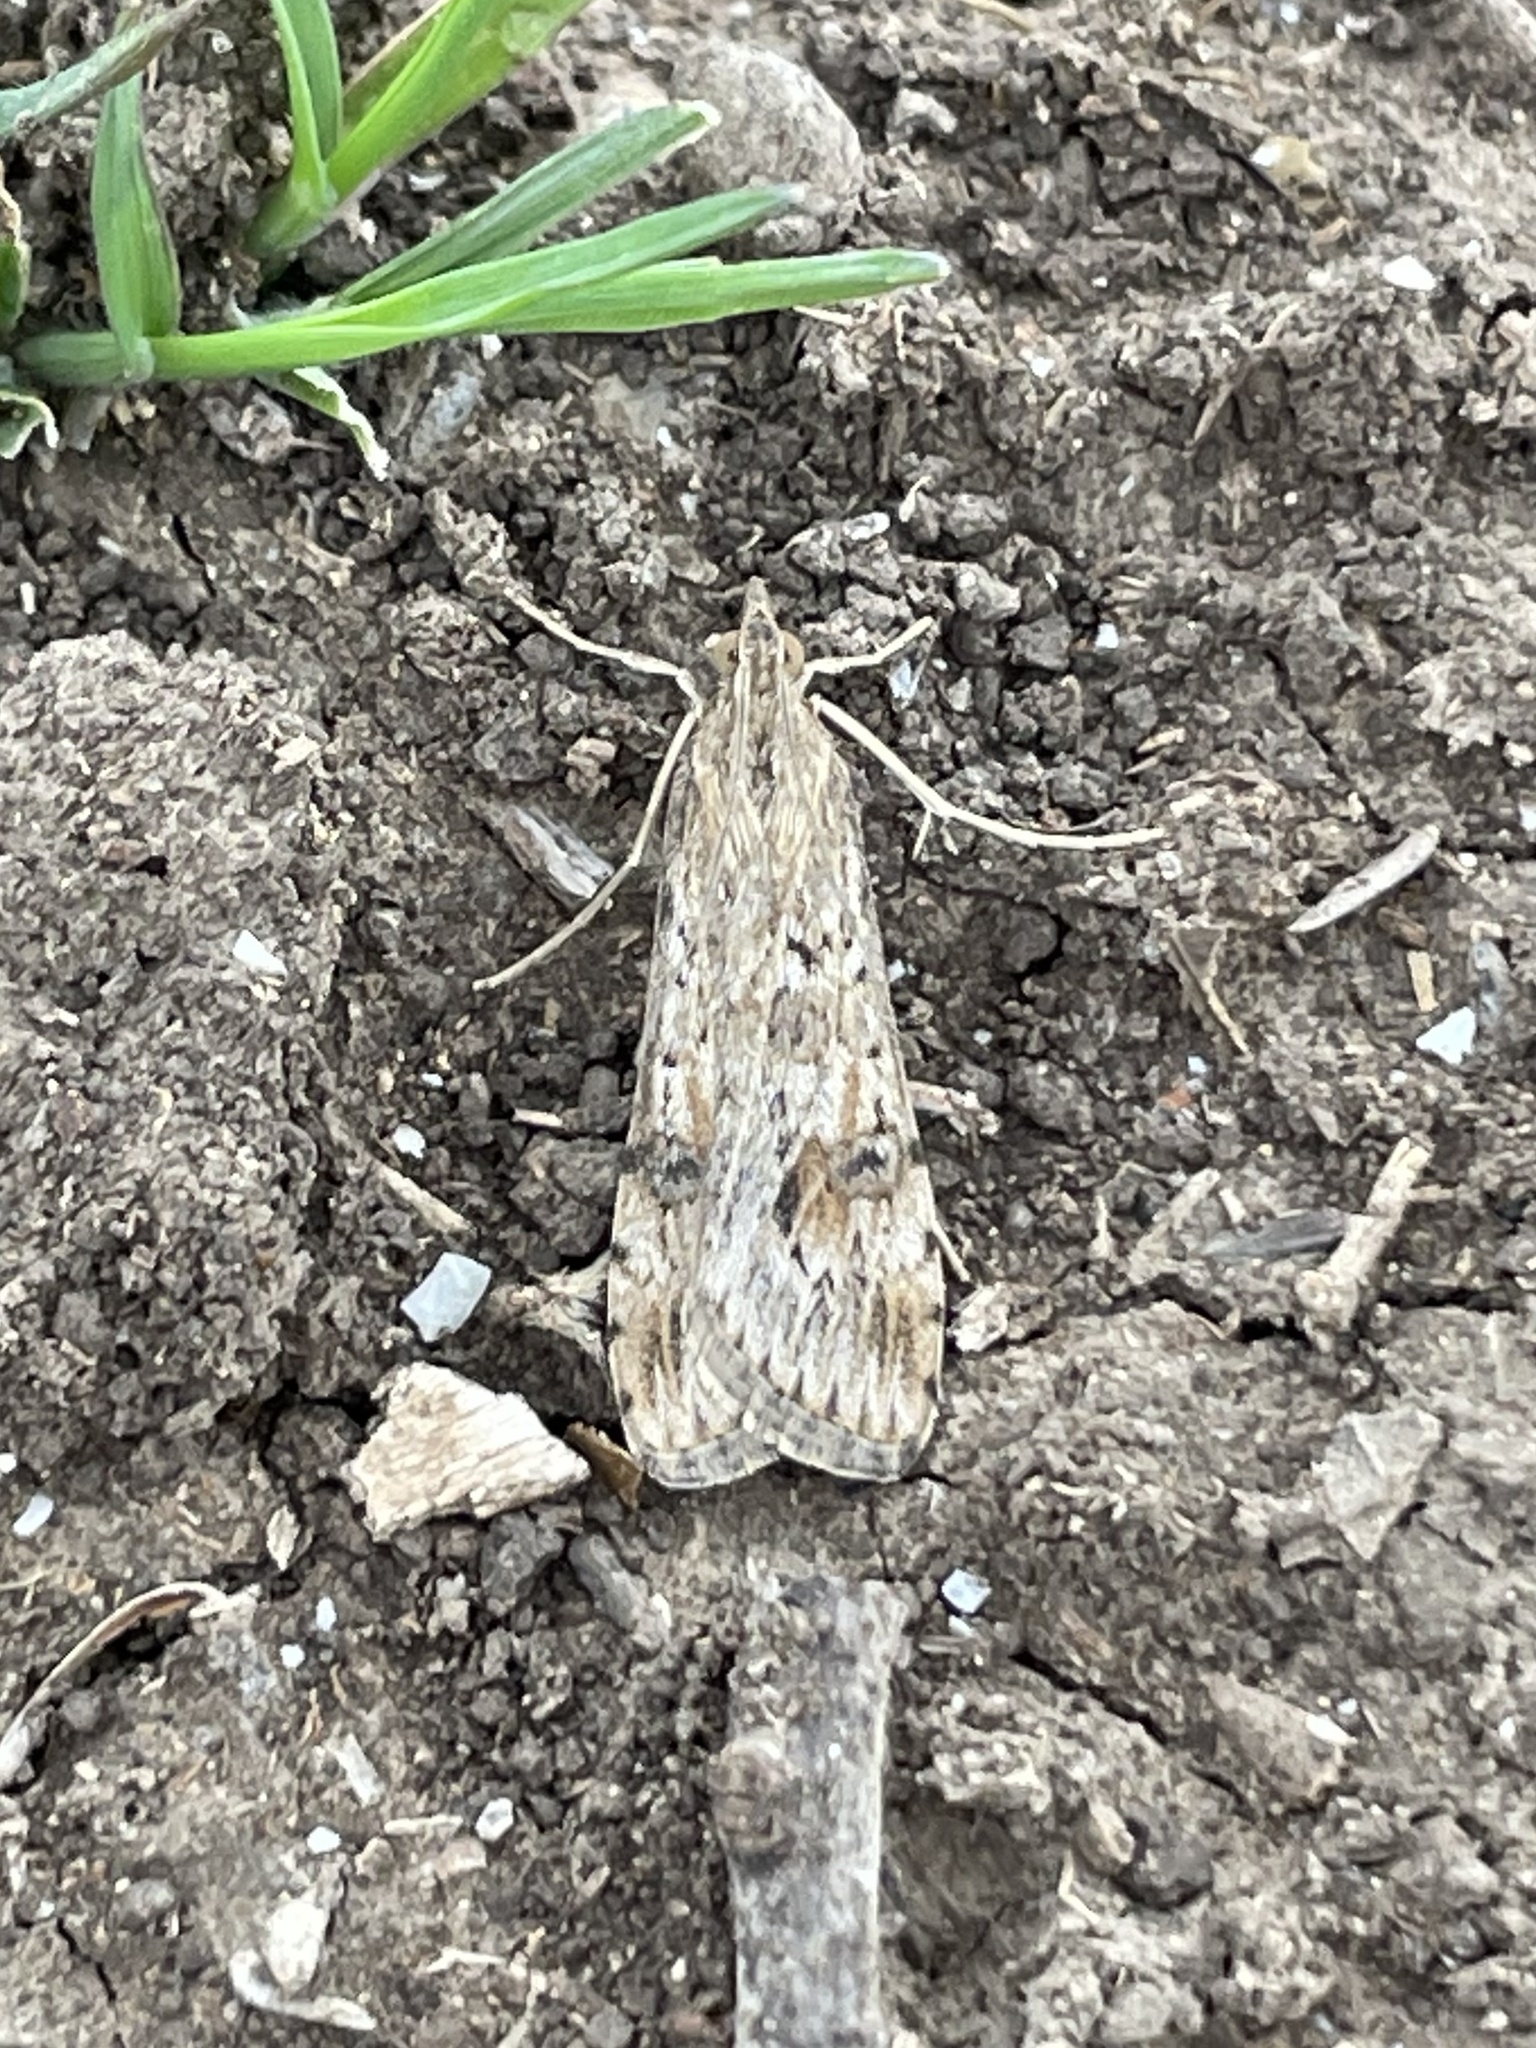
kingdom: Animalia
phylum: Arthropoda
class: Insecta
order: Lepidoptera
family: Crambidae
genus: Nomophila
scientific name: Nomophila nearctica
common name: American rush veneer
